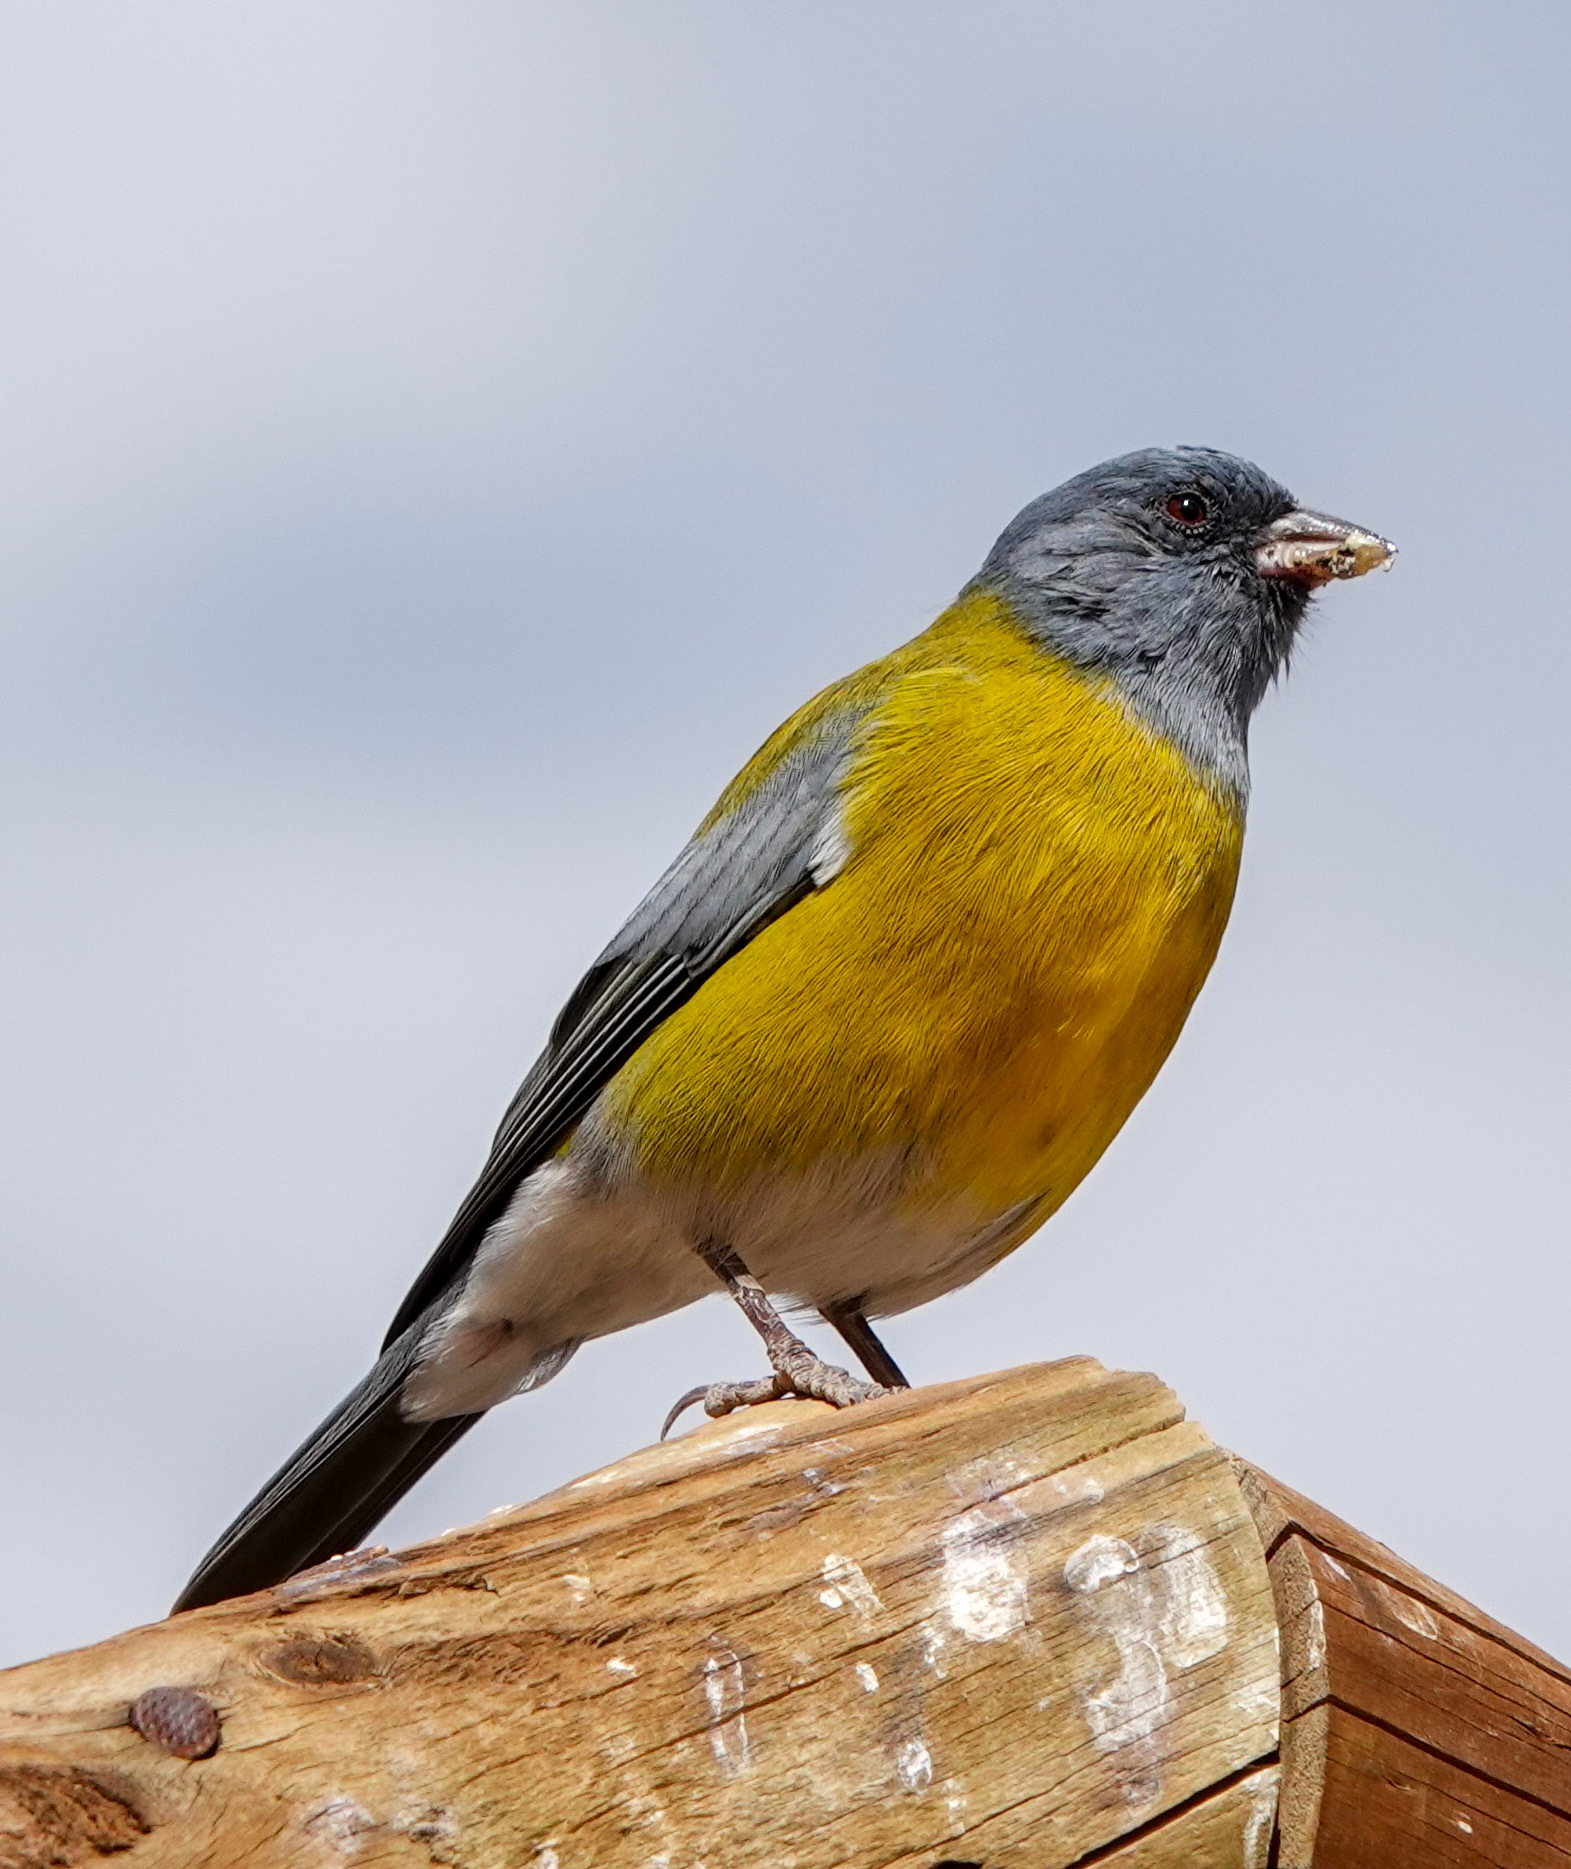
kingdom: Animalia
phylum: Chordata
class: Aves
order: Passeriformes
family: Thraupidae
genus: Phrygilus
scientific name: Phrygilus gayi
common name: Grey-hooded sierra finch
